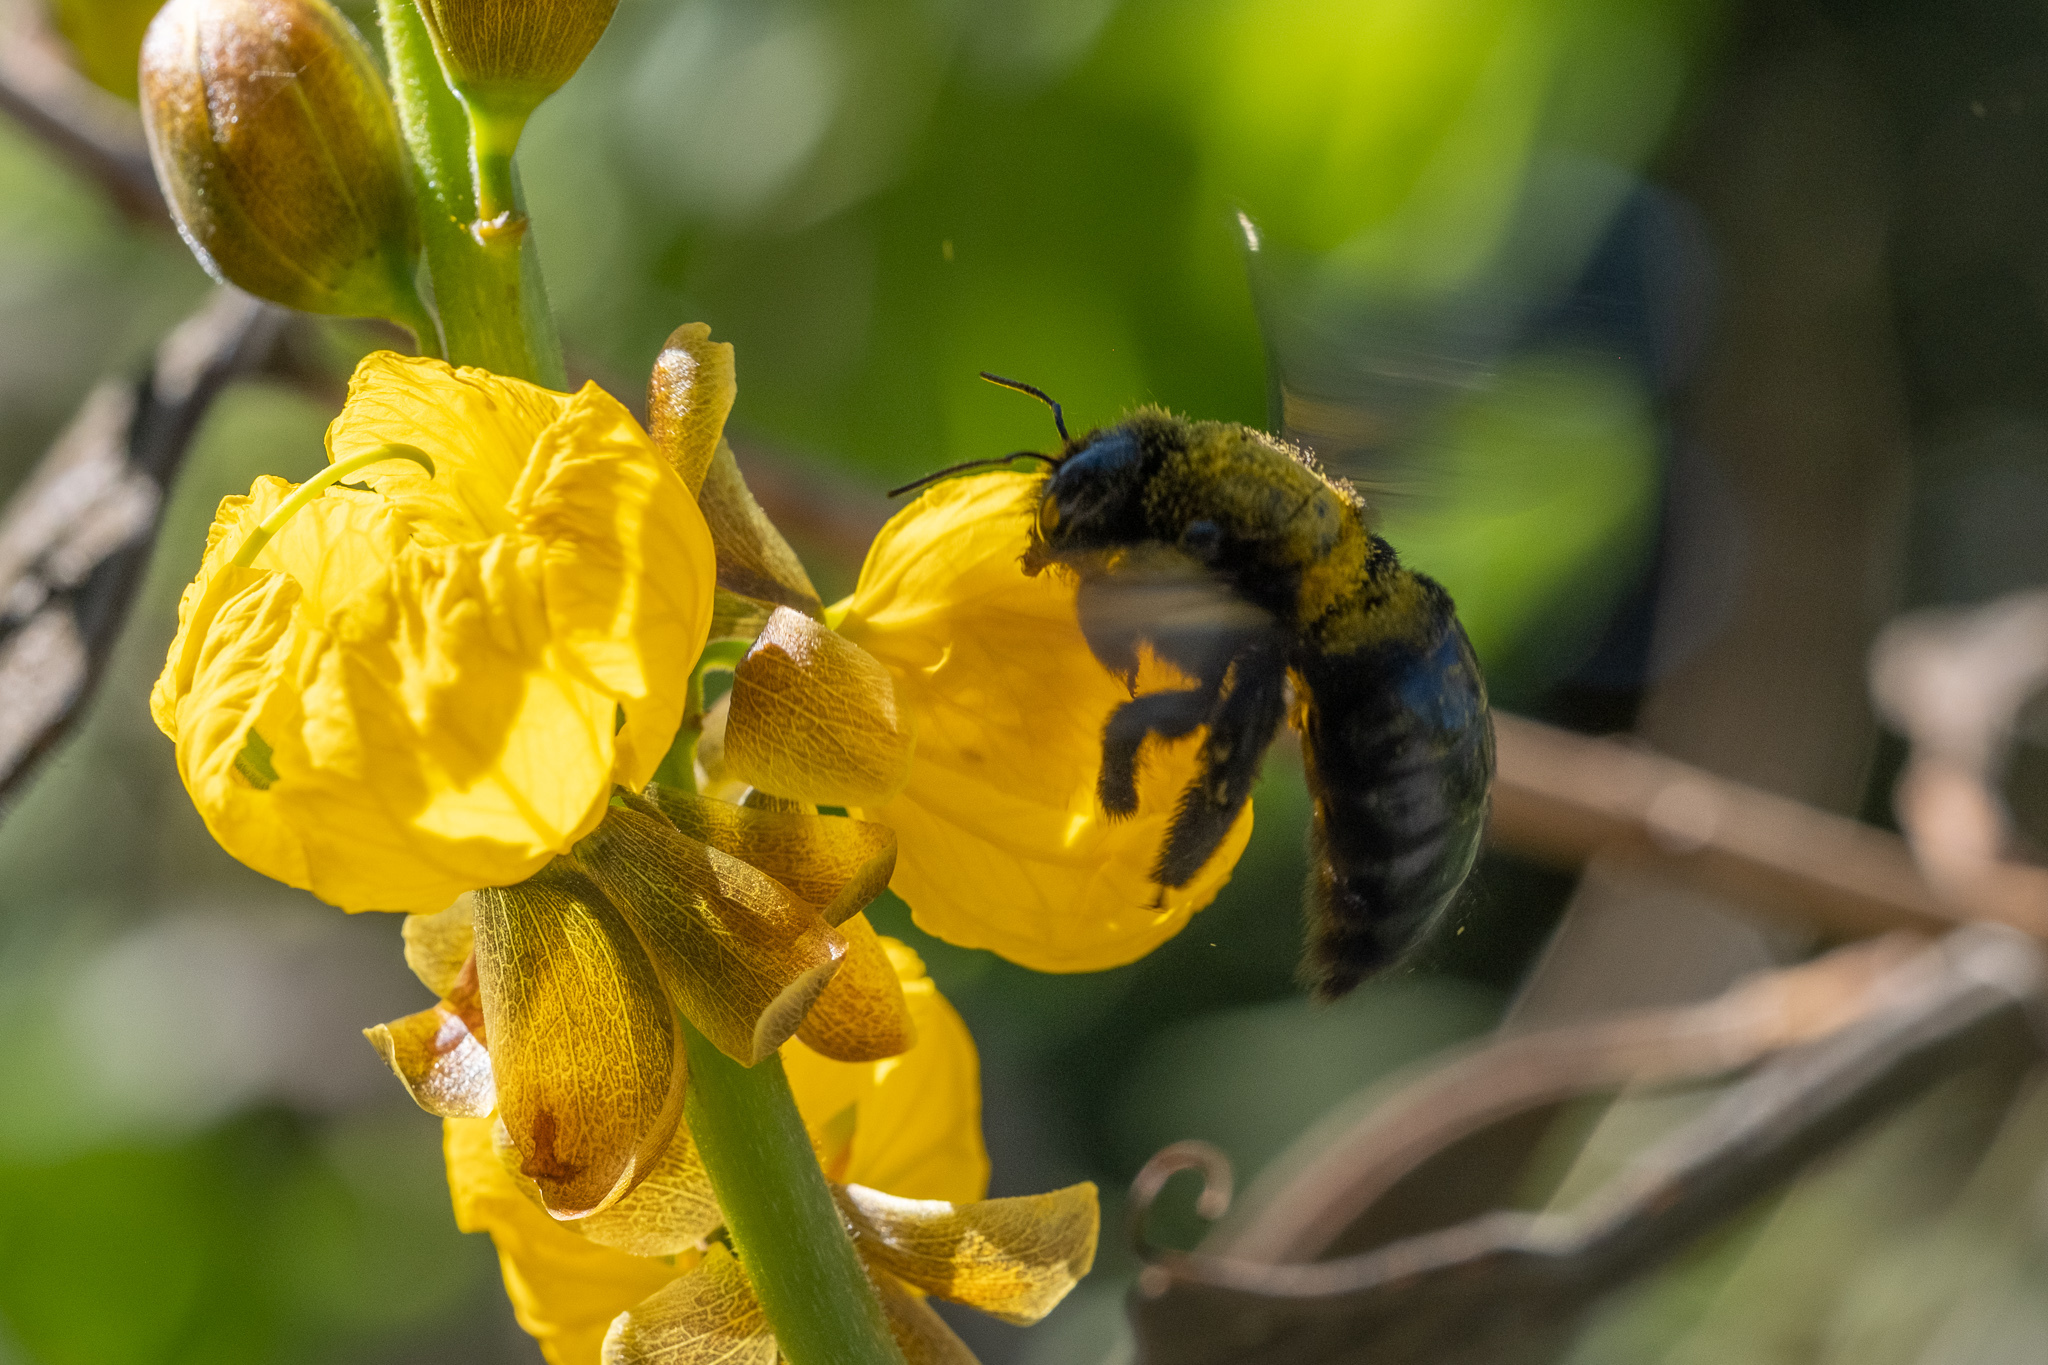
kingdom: Animalia
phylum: Arthropoda
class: Insecta
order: Hymenoptera
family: Apidae
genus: Xylocopa
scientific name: Xylocopa sonorina
